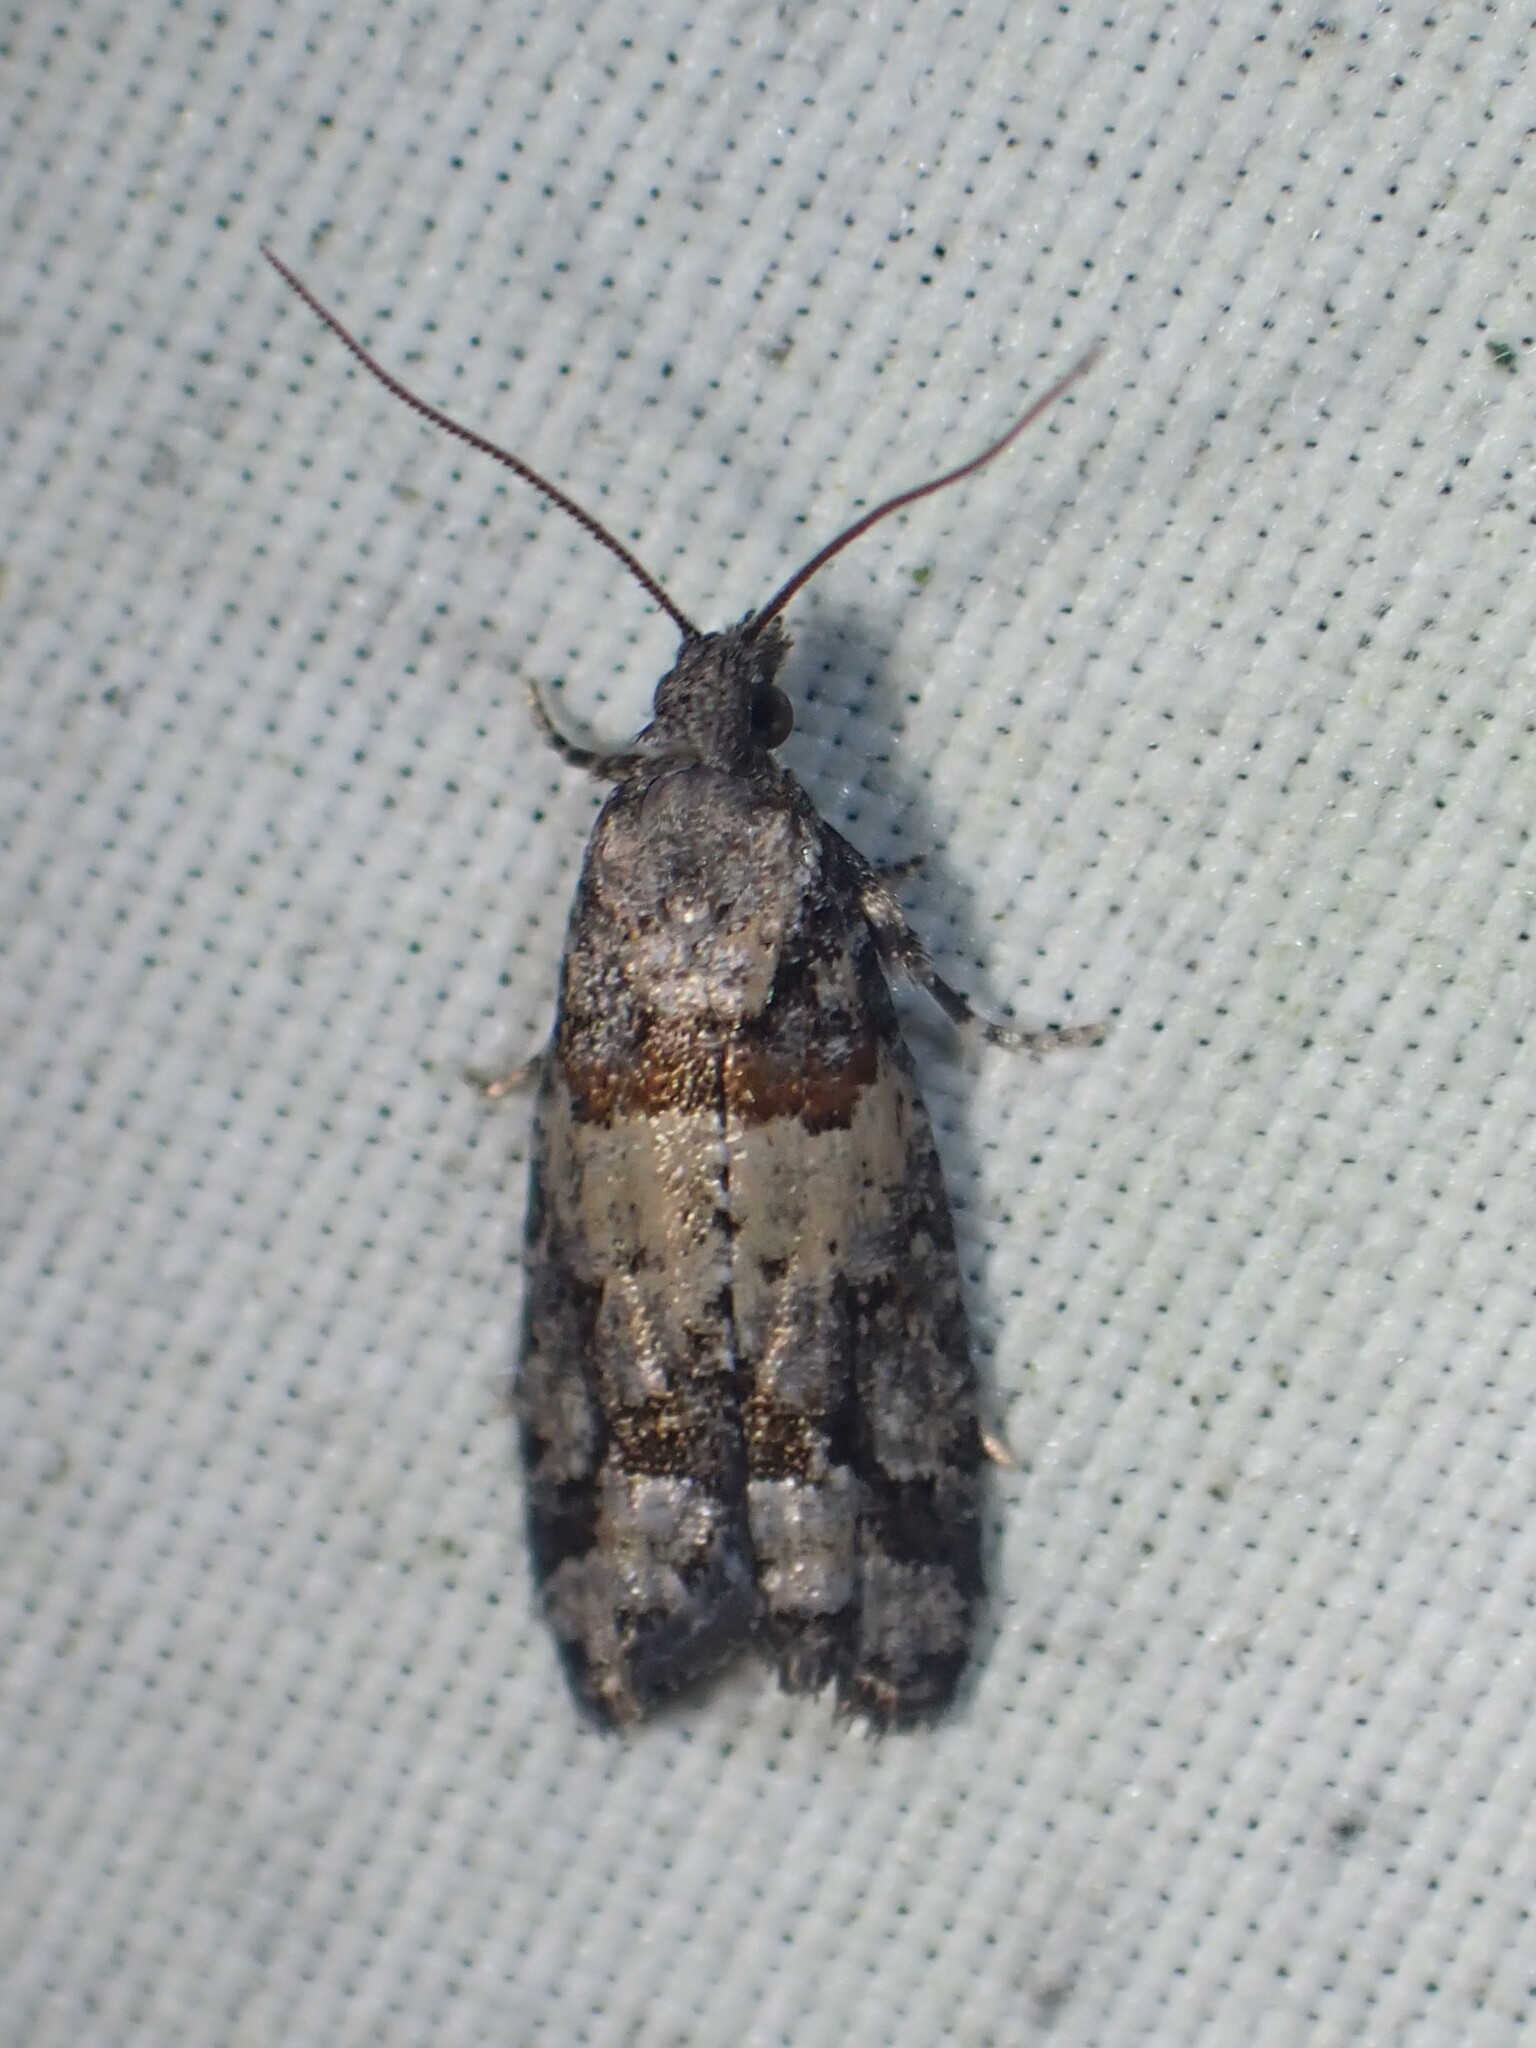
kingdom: Animalia
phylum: Arthropoda
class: Insecta
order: Lepidoptera
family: Tortricidae
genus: Epinotia
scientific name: Epinotia radicana
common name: Red-striped needleworm moth
